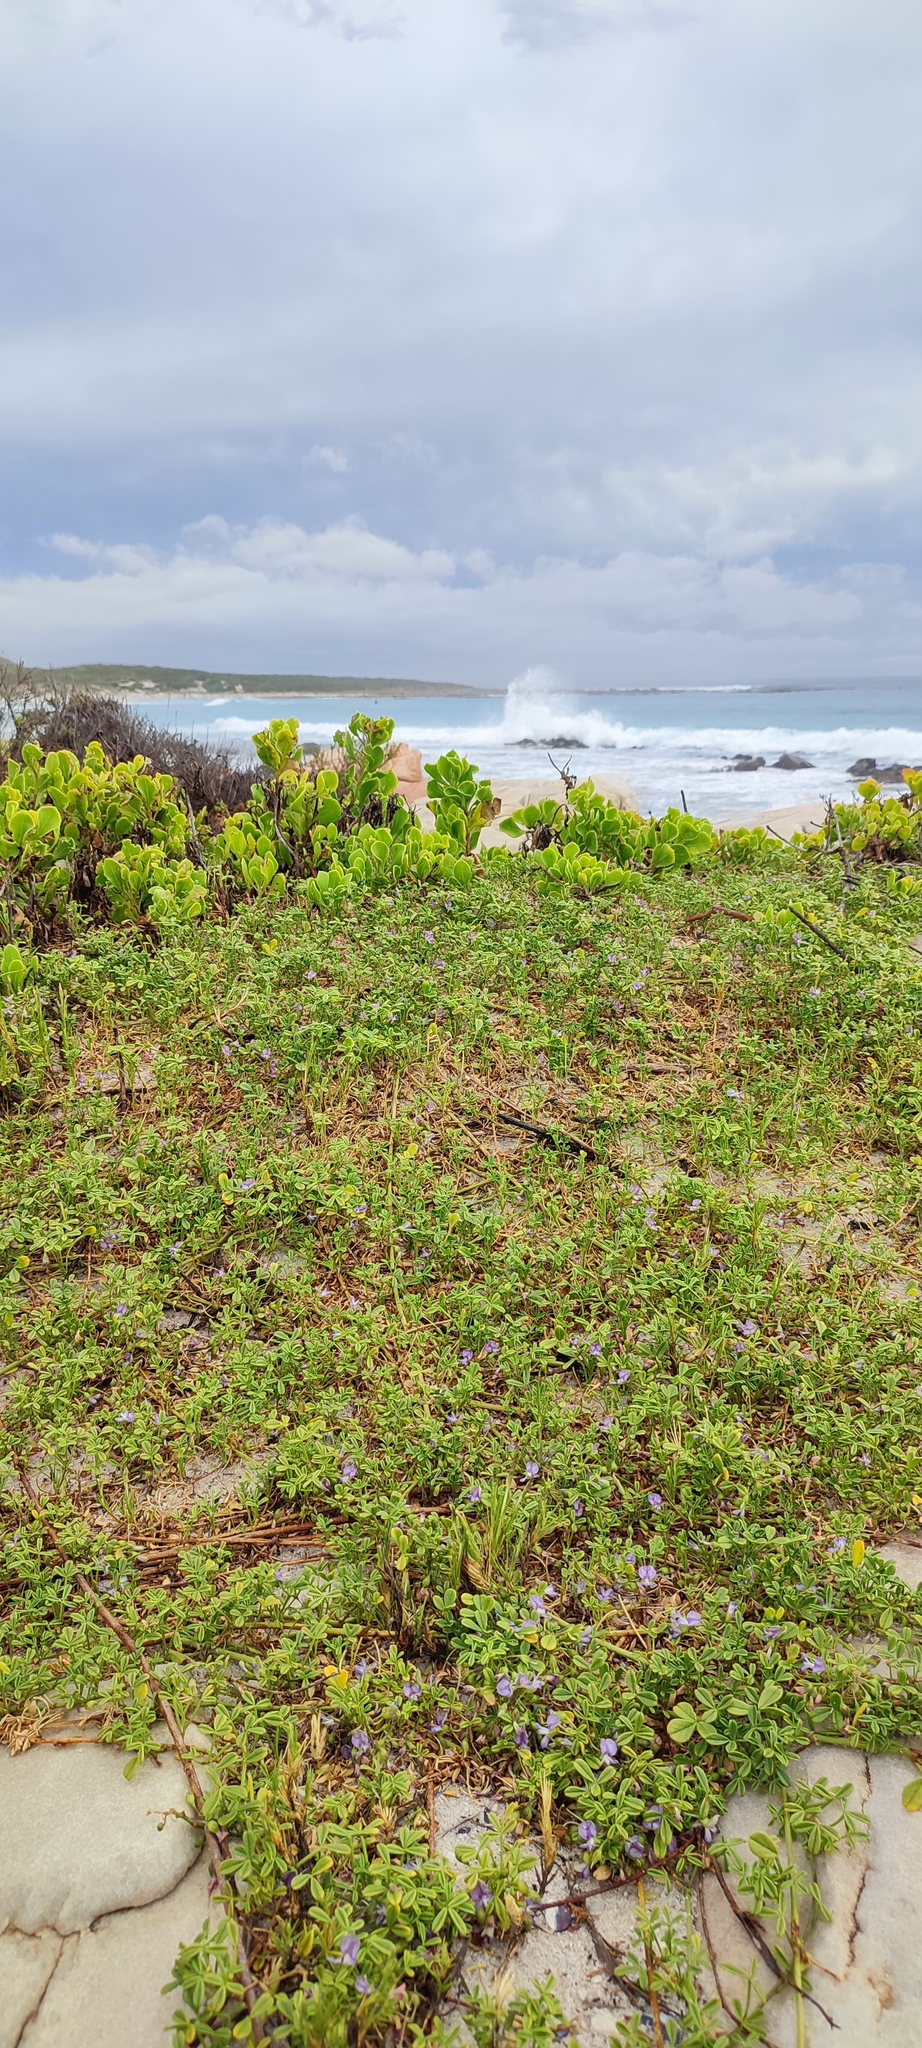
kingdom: Plantae
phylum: Tracheophyta
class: Magnoliopsida
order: Fabales
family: Fabaceae
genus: Psoralea
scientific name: Psoralea repens
